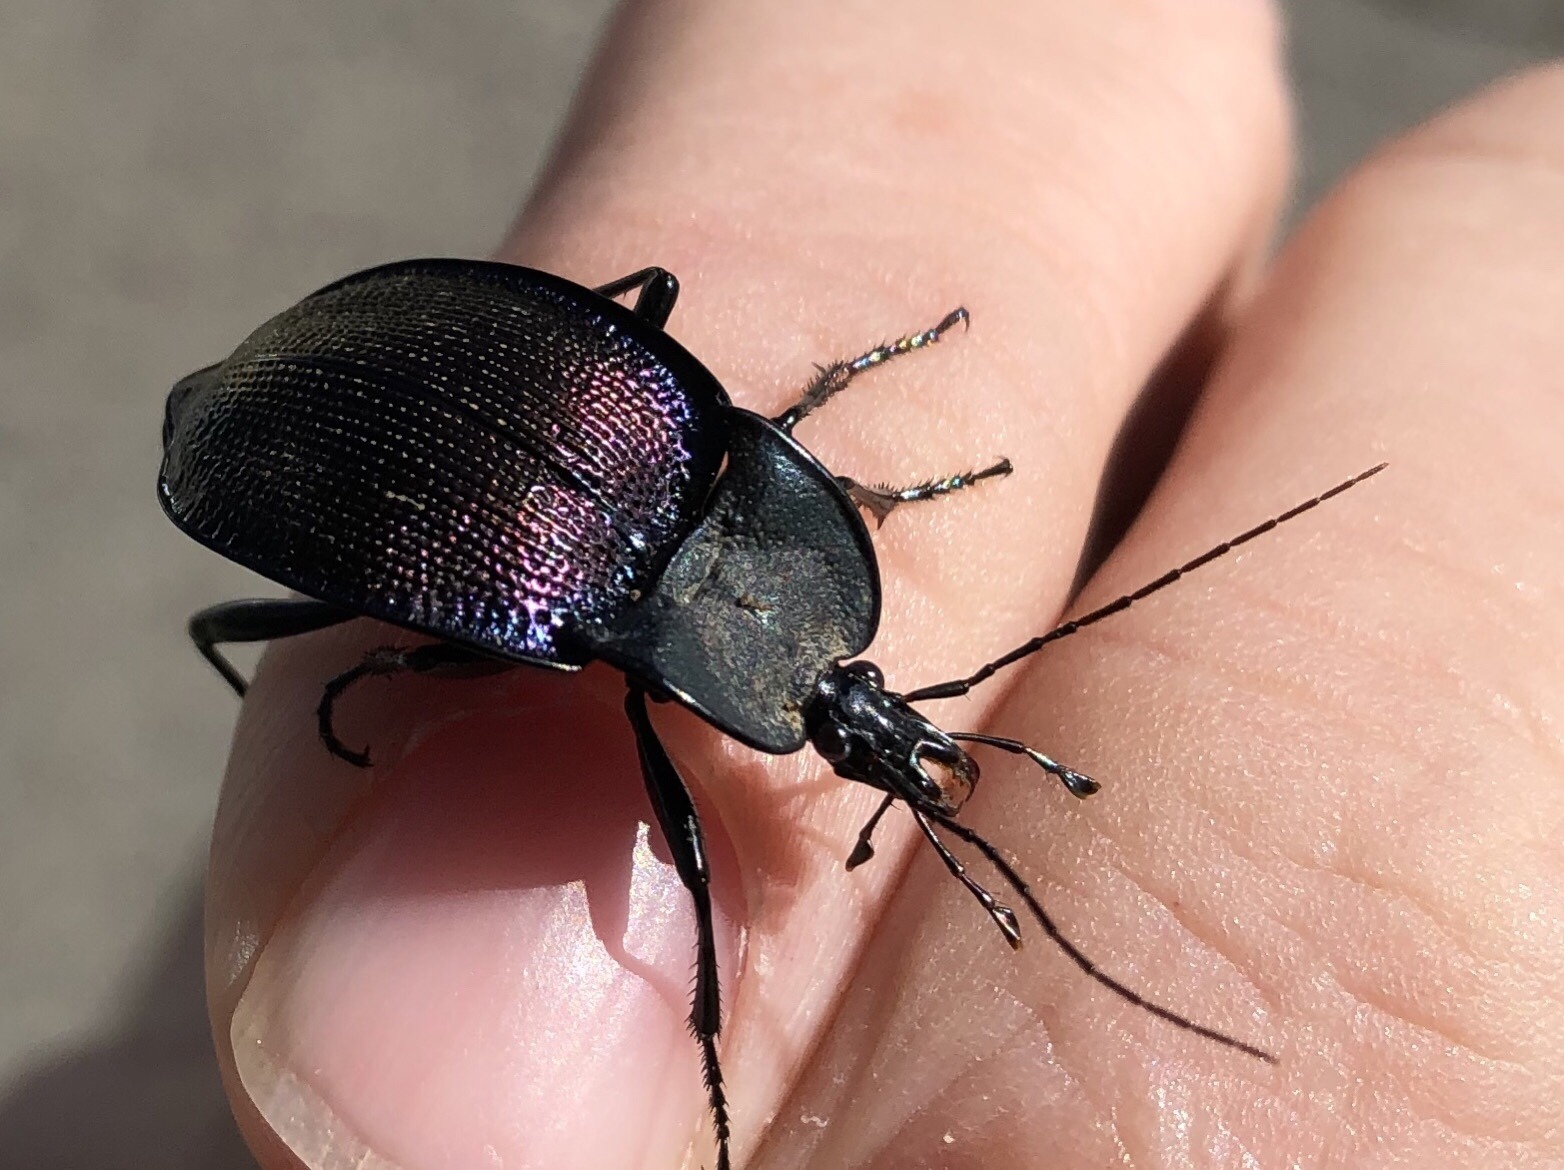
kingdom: Animalia
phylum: Arthropoda
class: Insecta
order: Coleoptera
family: Carabidae
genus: Scaphinotus
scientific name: Scaphinotus elevatus
